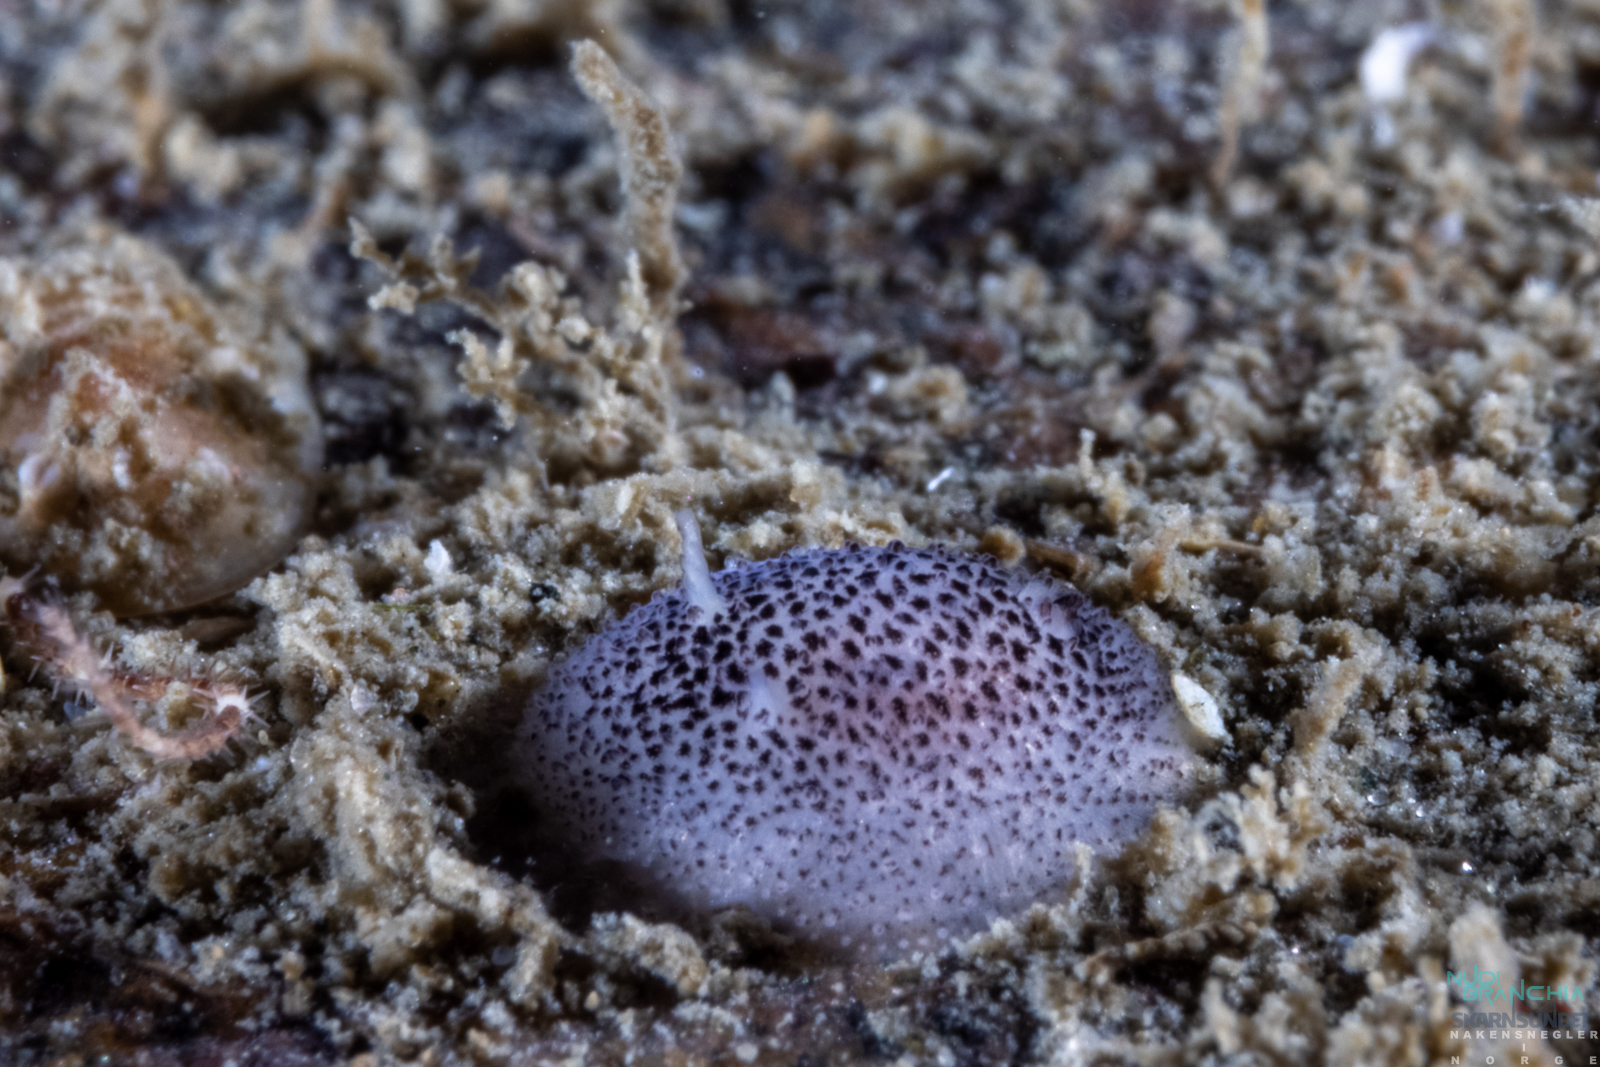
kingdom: Animalia
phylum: Mollusca
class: Gastropoda
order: Nudibranchia
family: Onchidorididae
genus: Atalodoris
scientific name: Atalodoris pusilla
